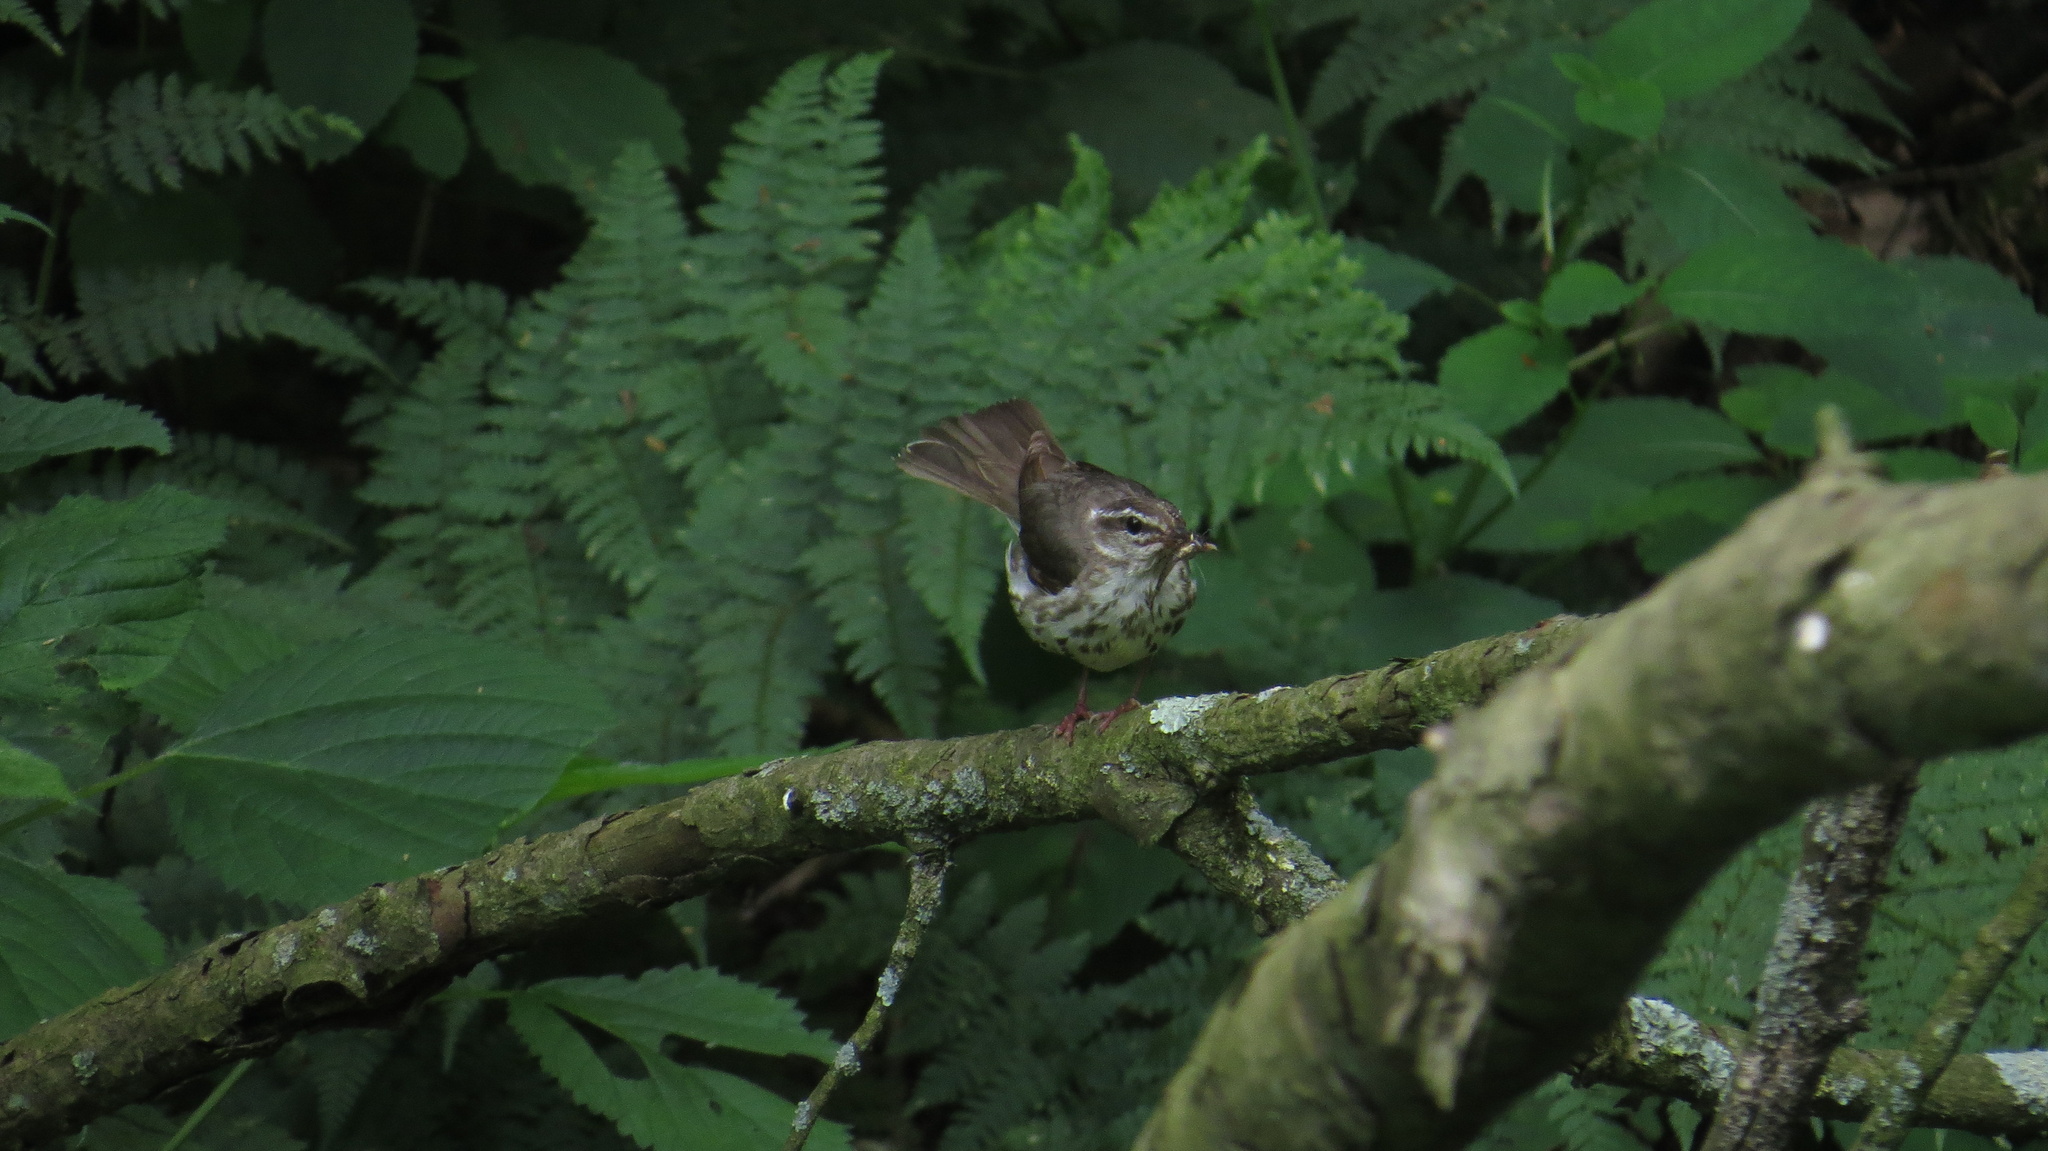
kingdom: Animalia
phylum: Chordata
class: Aves
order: Passeriformes
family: Parulidae
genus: Parkesia
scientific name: Parkesia motacilla
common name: Louisiana waterthrush
